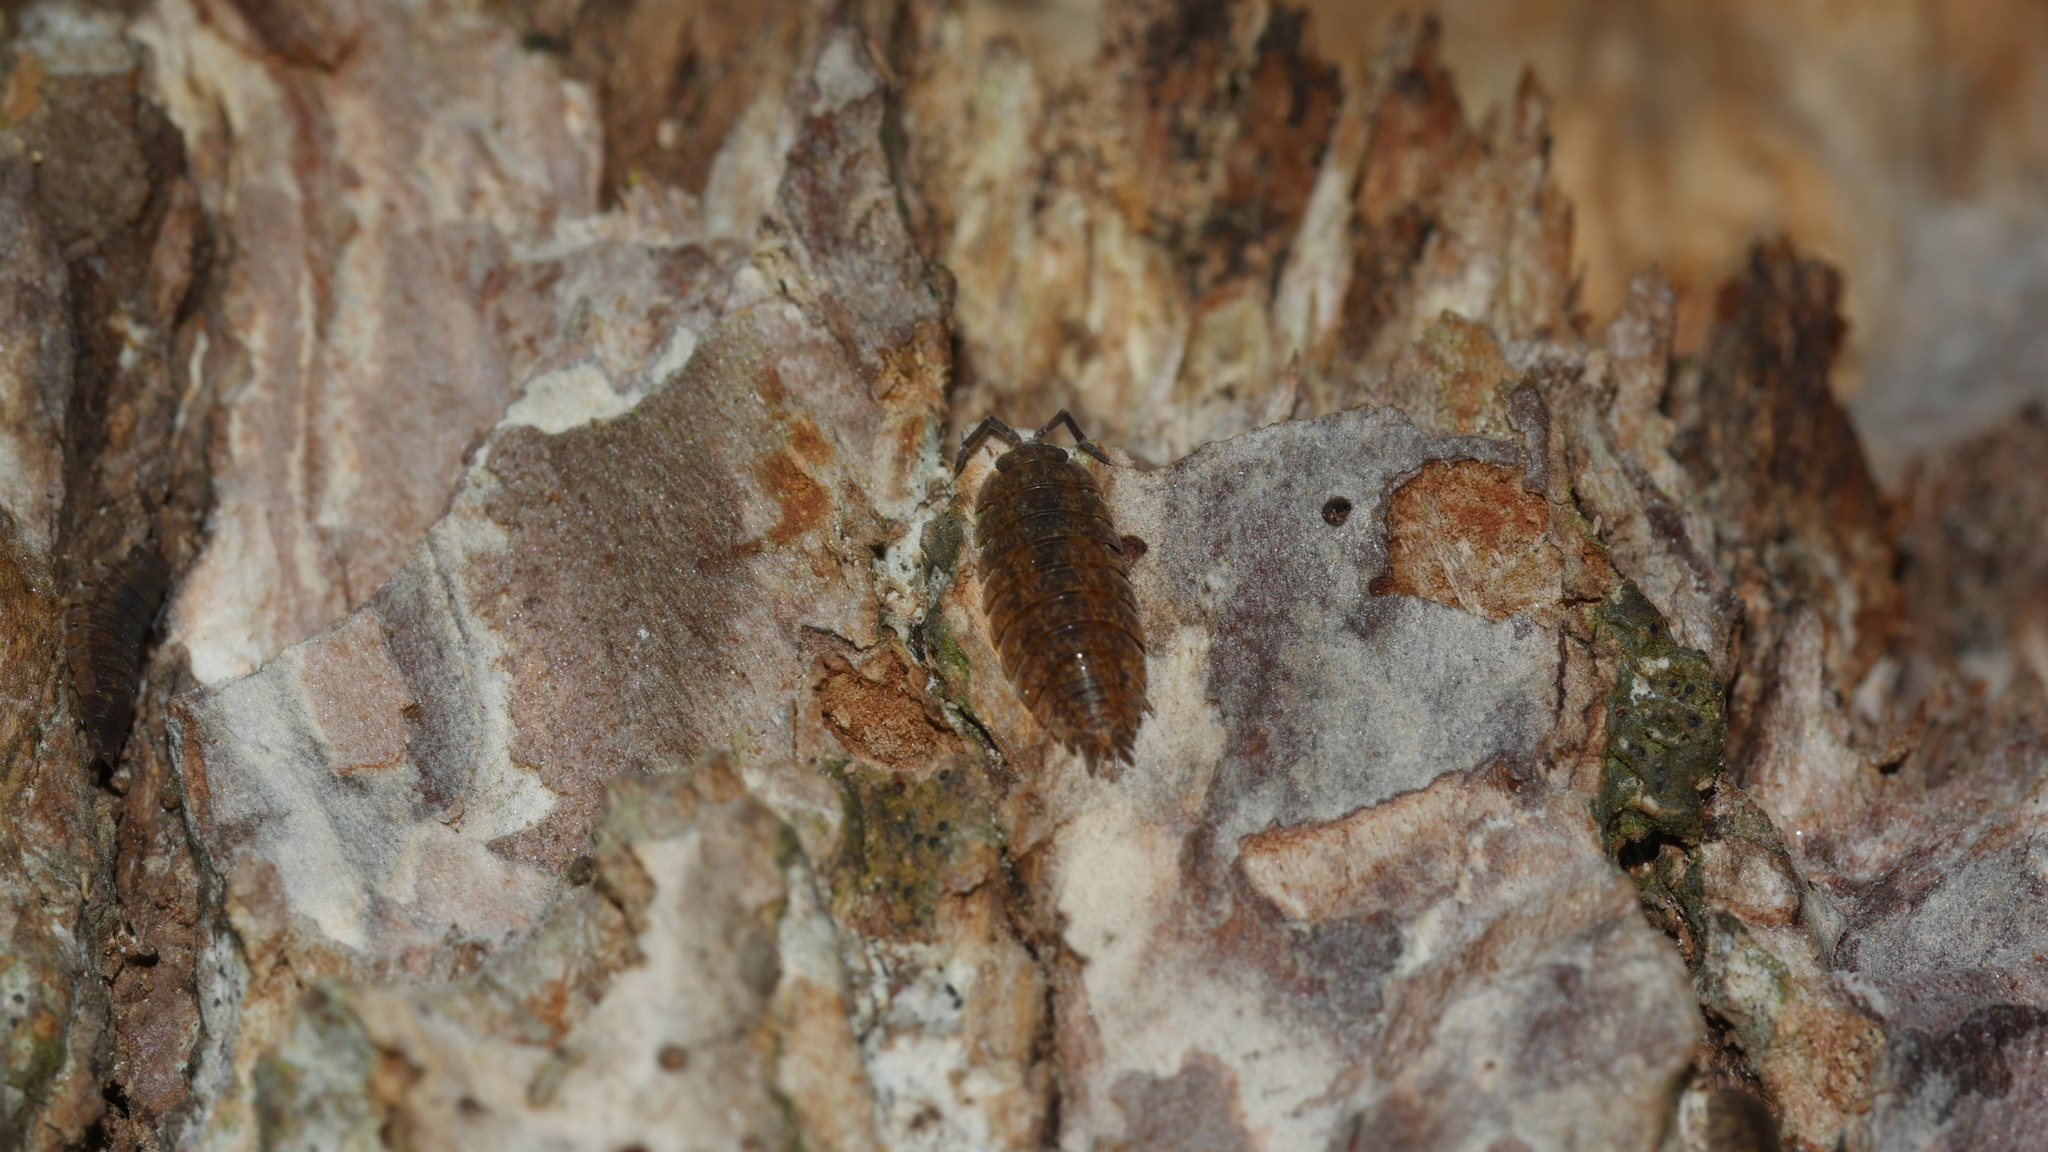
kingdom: Animalia
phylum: Arthropoda
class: Malacostraca
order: Isopoda
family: Porcellionidae
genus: Porcellio
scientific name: Porcellio scaber
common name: Common rough woodlouse
